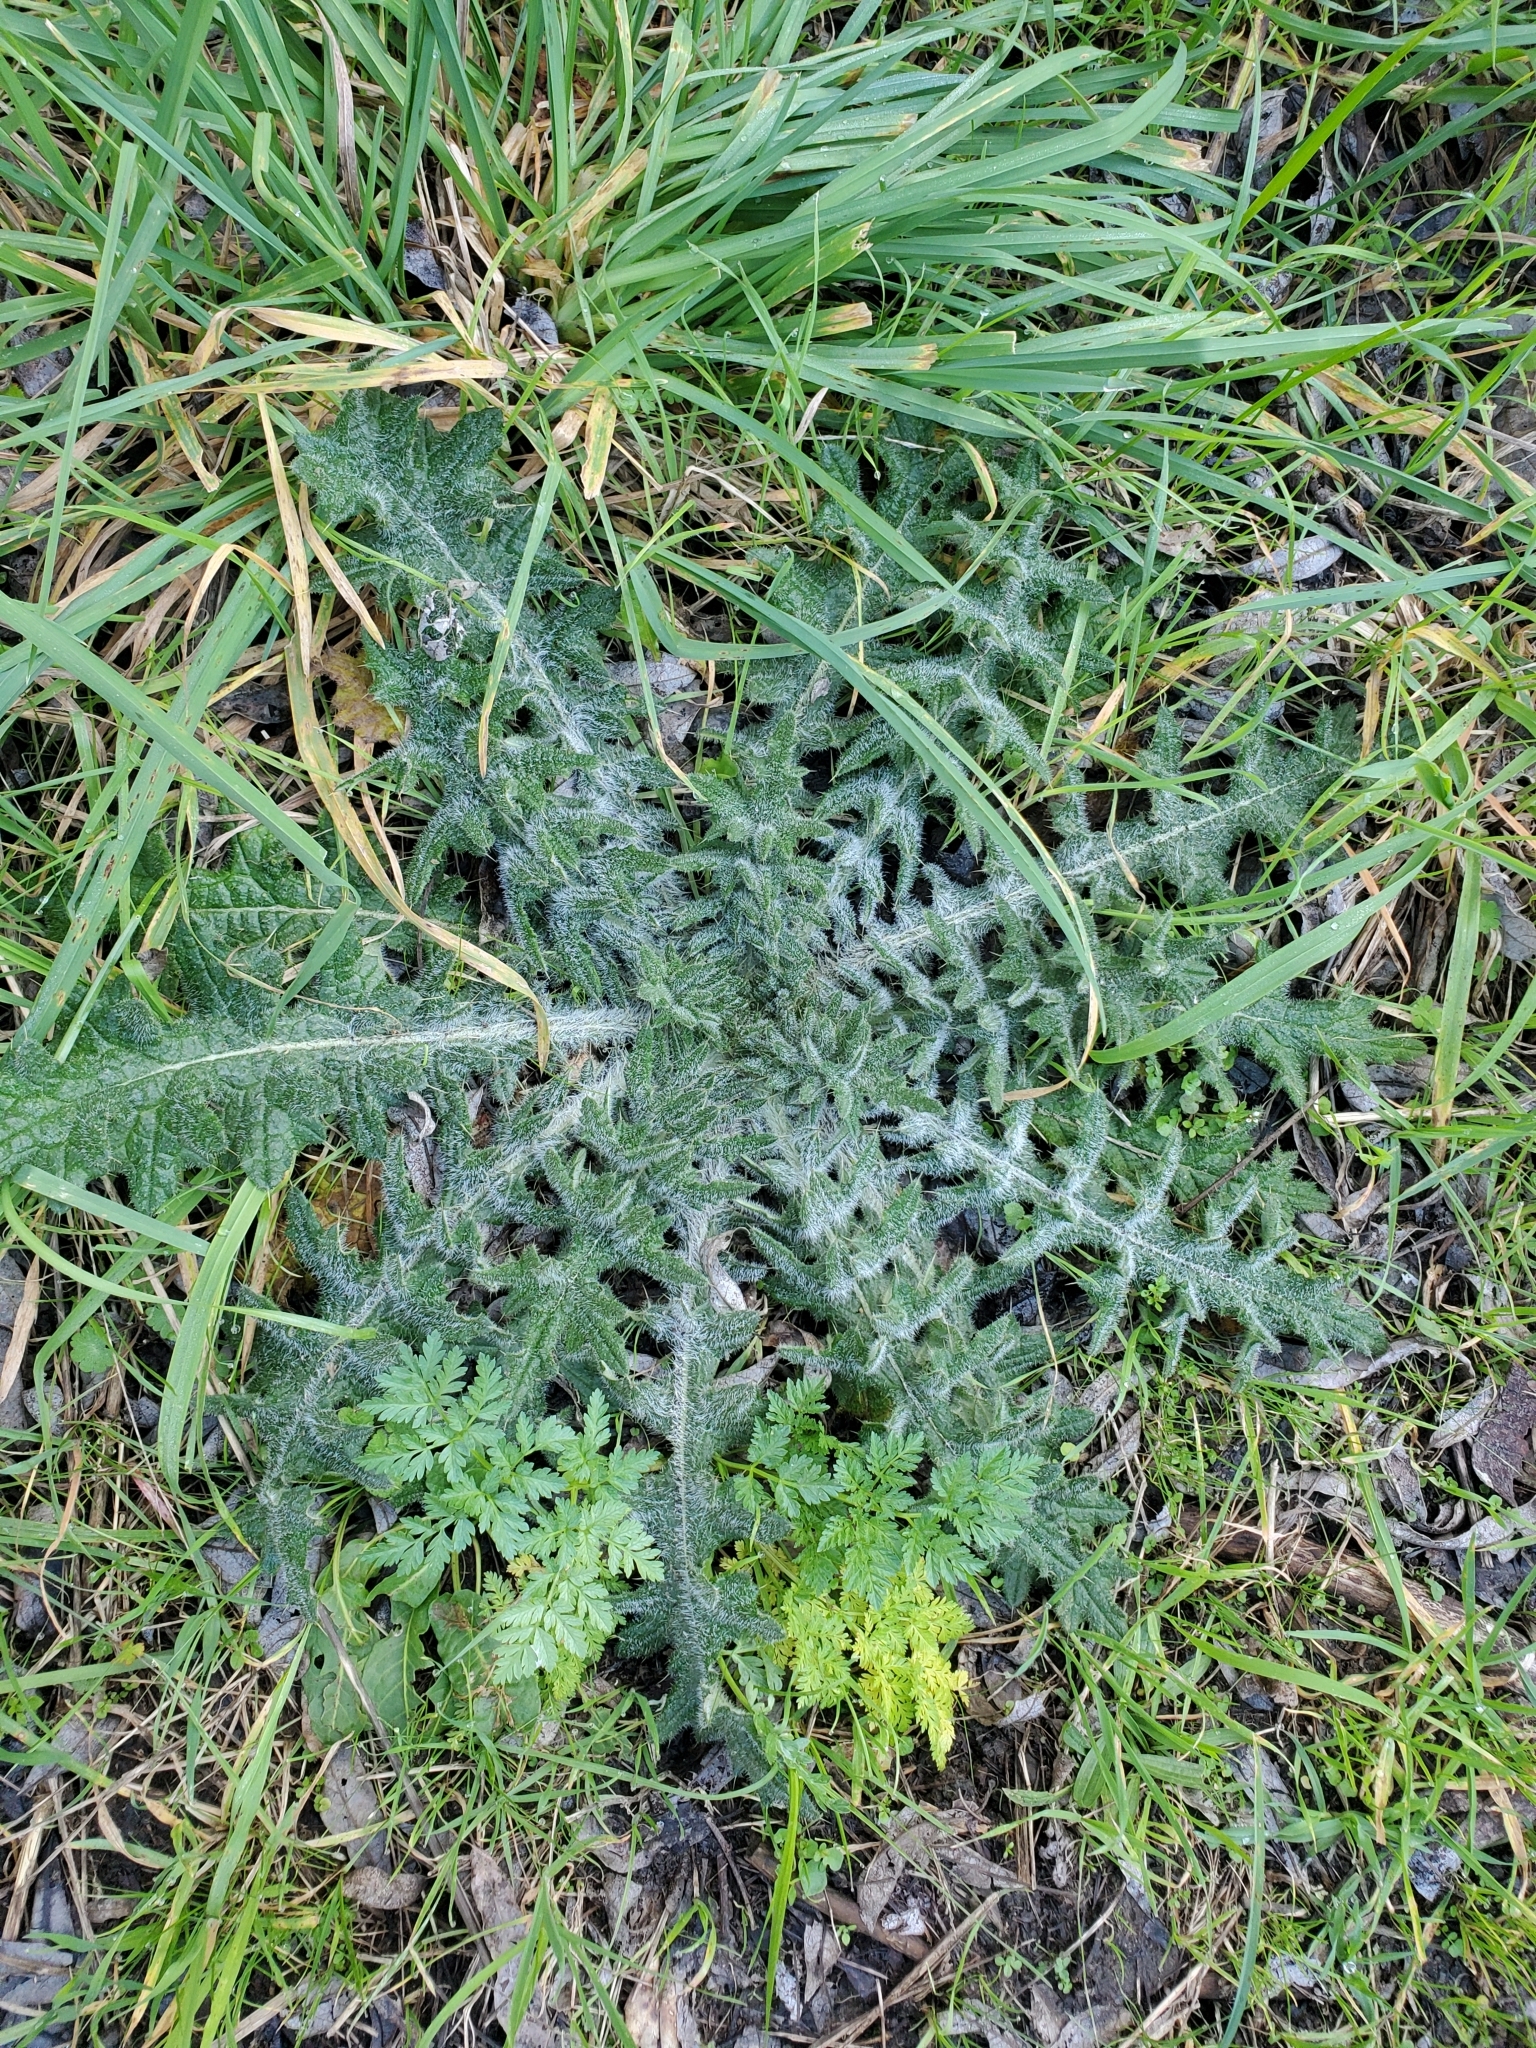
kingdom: Plantae
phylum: Tracheophyta
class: Magnoliopsida
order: Asterales
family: Asteraceae
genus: Cirsium
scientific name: Cirsium vulgare
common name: Bull thistle
